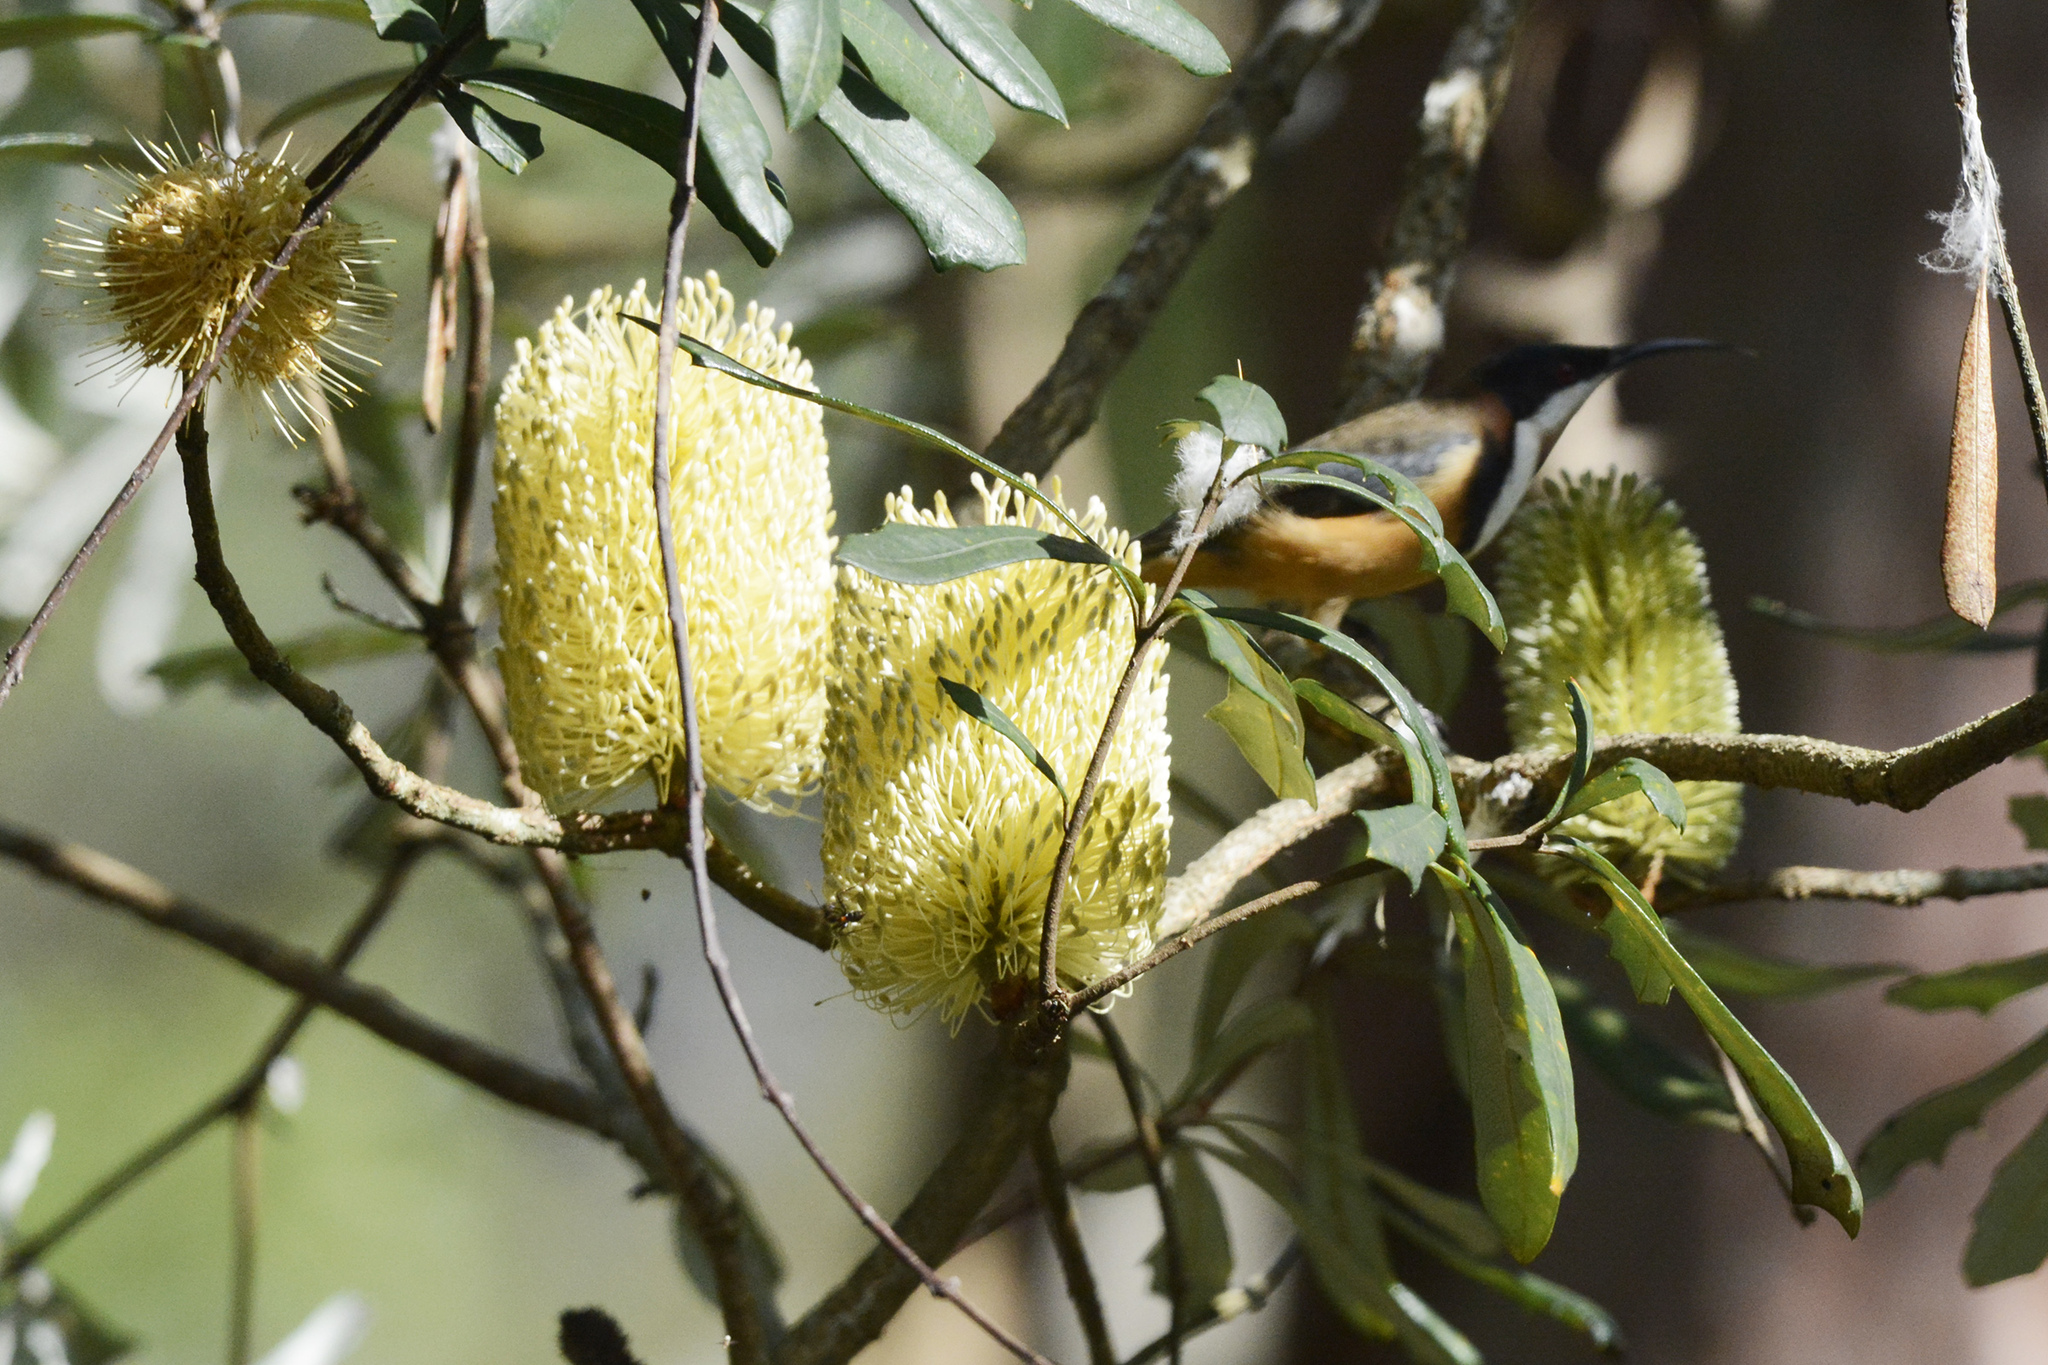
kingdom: Animalia
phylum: Chordata
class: Aves
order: Passeriformes
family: Meliphagidae
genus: Acanthorhynchus
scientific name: Acanthorhynchus tenuirostris
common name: Eastern spinebill
